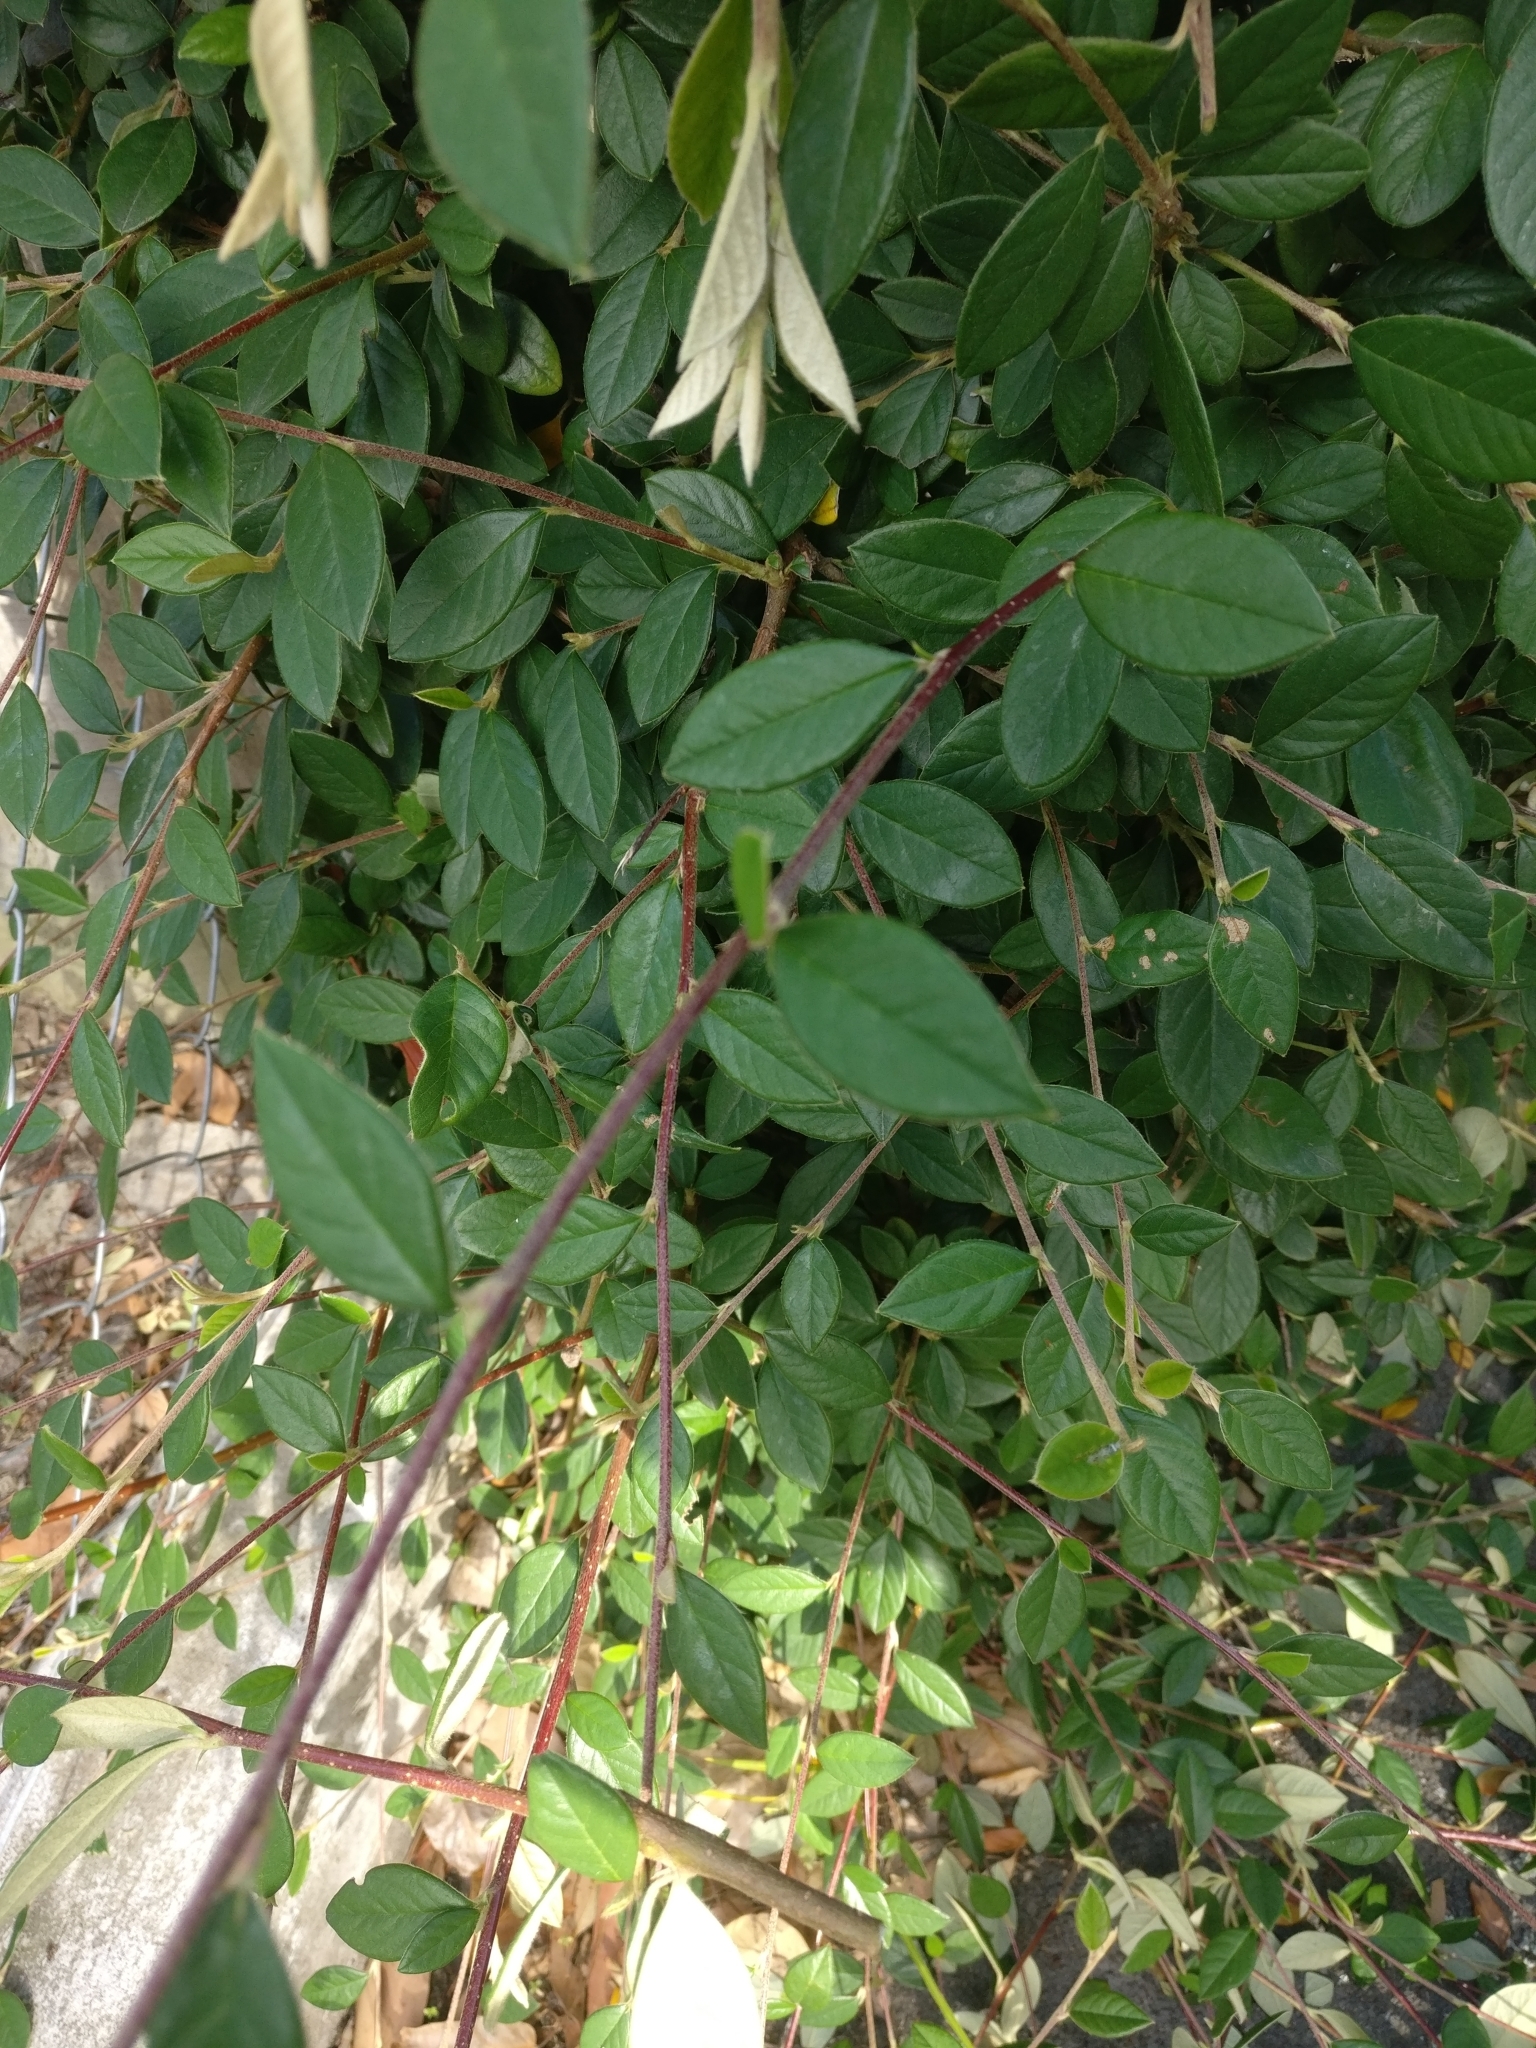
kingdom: Plantae
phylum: Tracheophyta
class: Magnoliopsida
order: Rosales
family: Rosaceae
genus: Cotoneaster
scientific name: Cotoneaster glaucophyllus
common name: Glaucous cotoneaster
